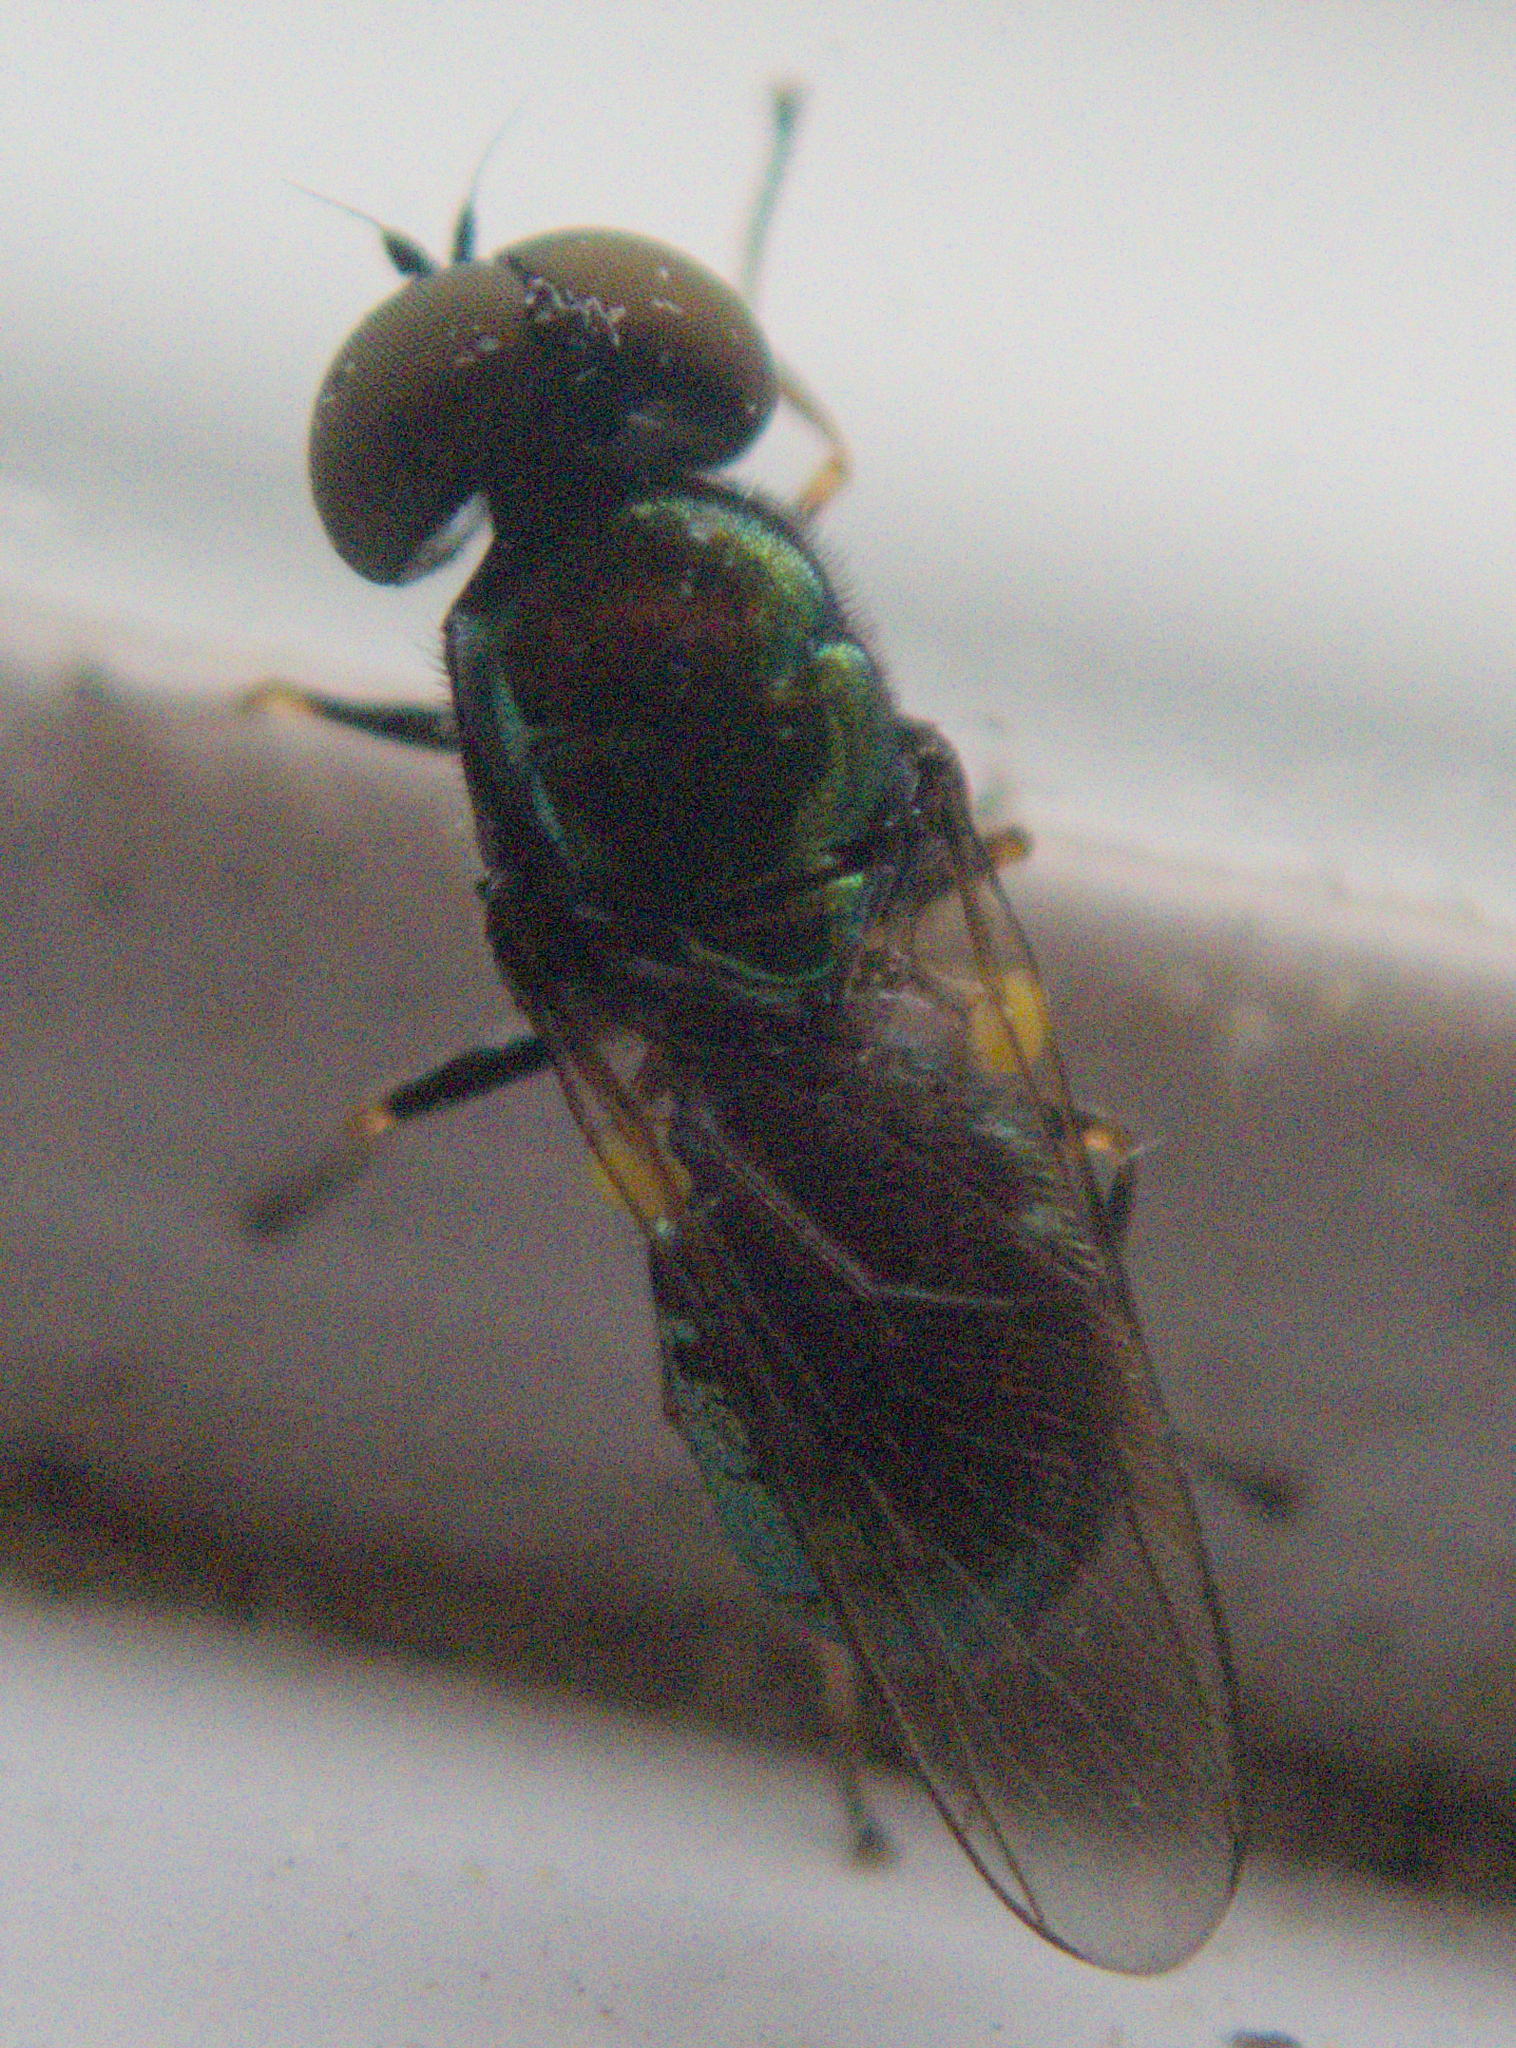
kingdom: Animalia
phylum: Arthropoda
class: Insecta
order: Diptera
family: Stratiomyidae
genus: Microchrysa
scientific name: Microchrysa polita
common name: Black-horned gem
